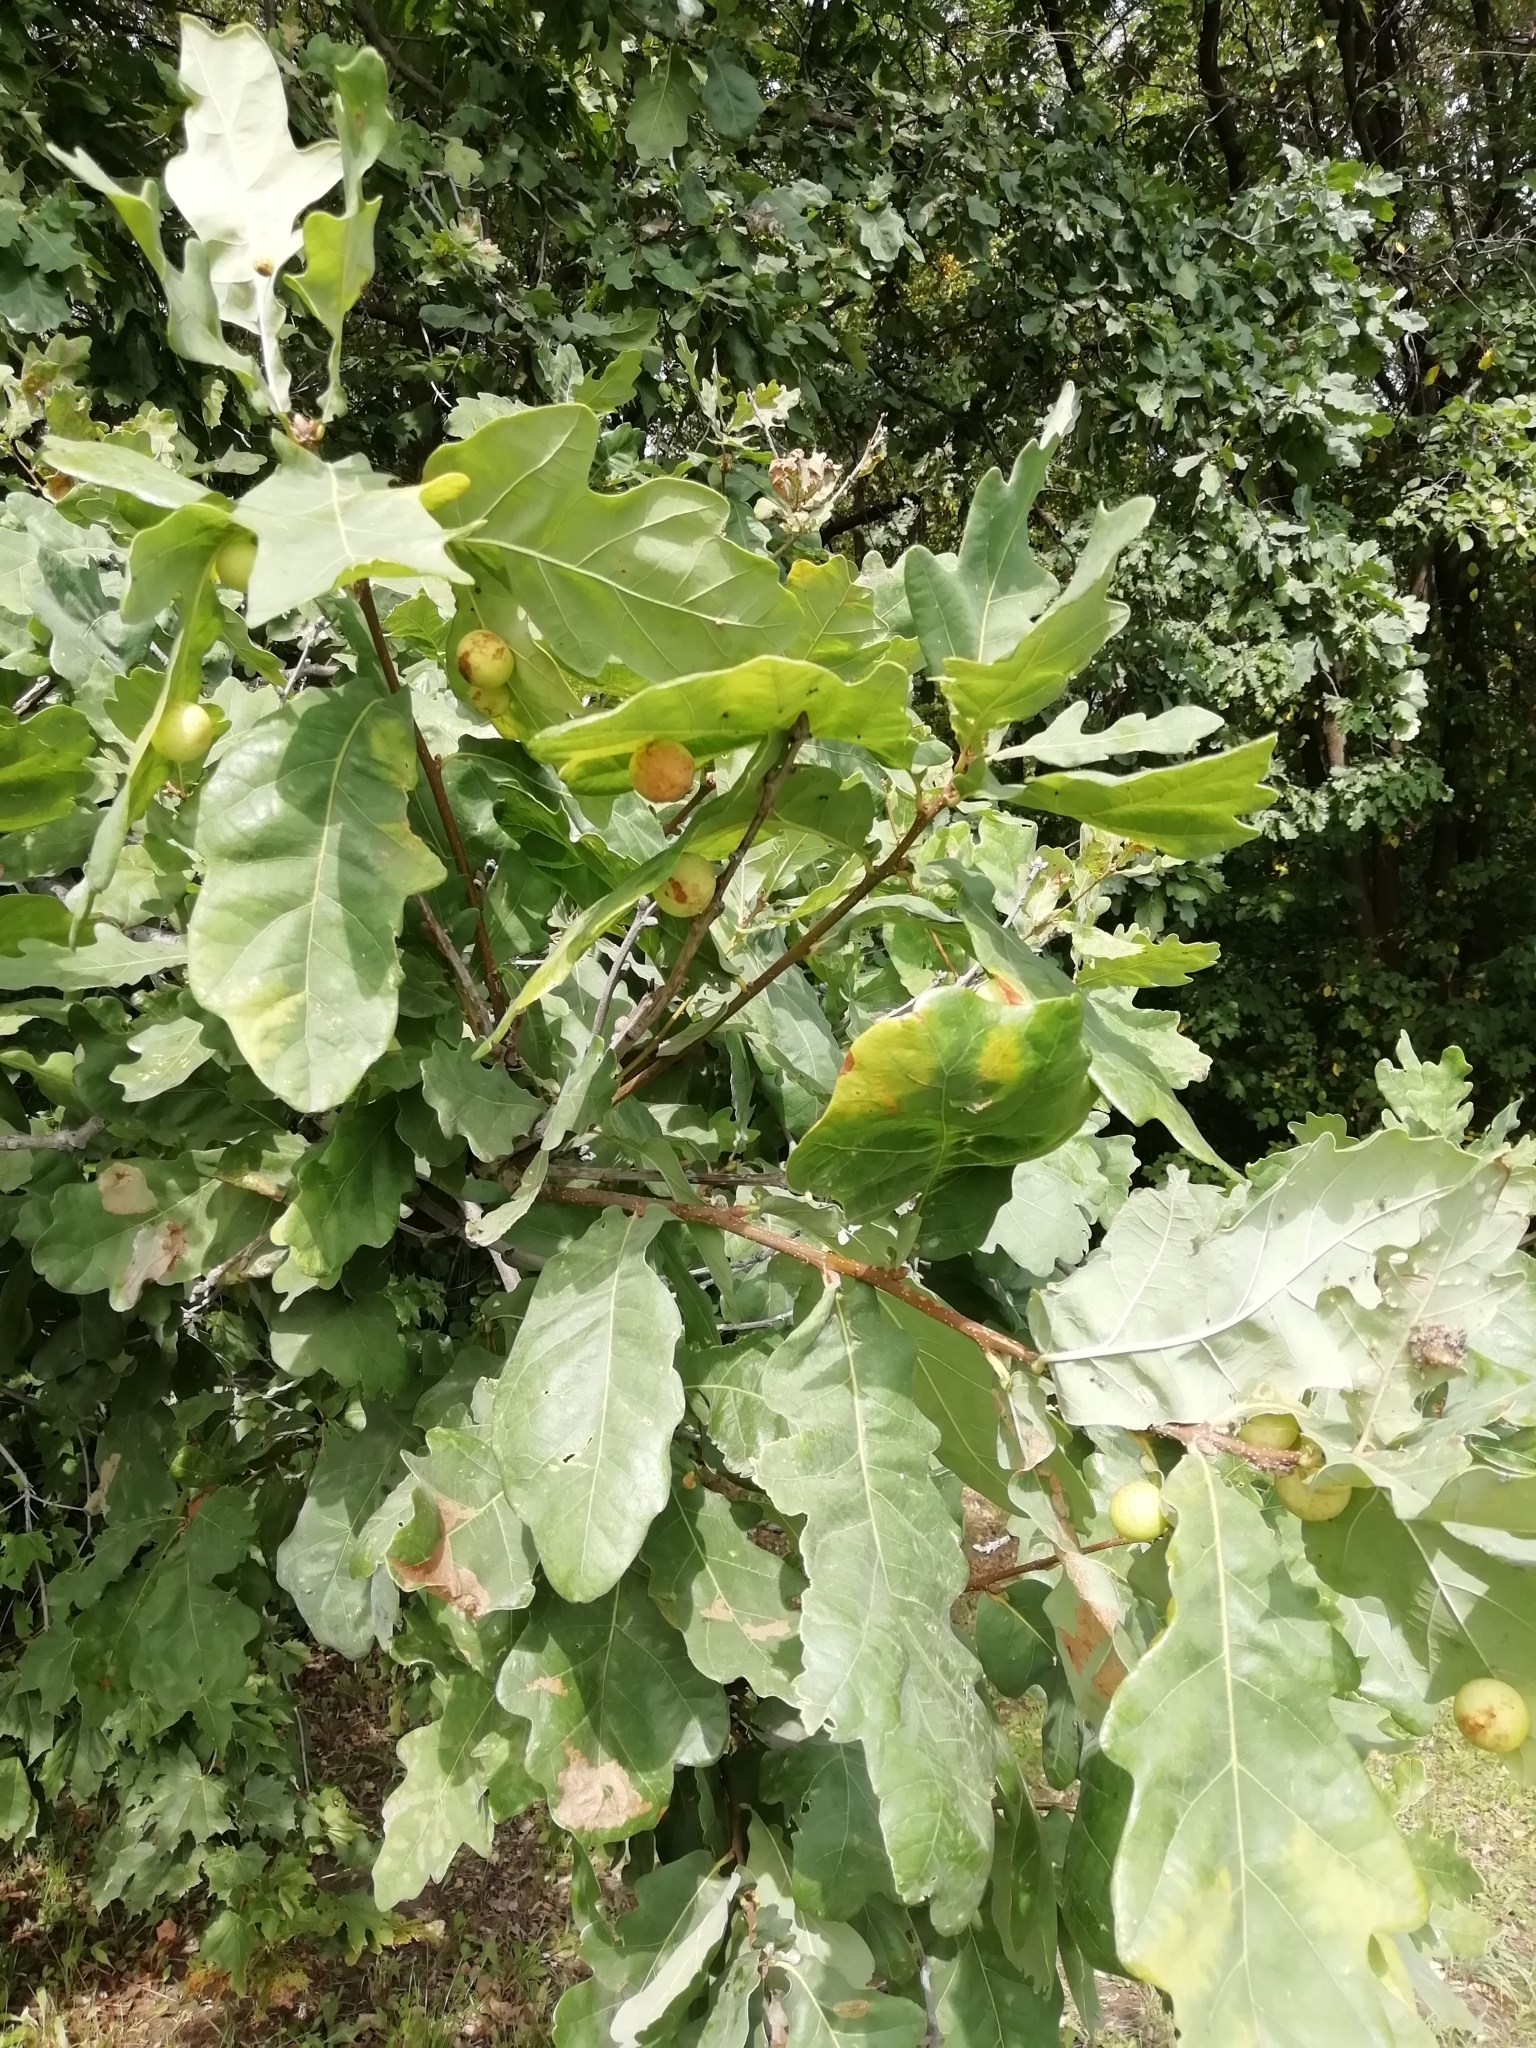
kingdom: Animalia
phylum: Arthropoda
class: Insecta
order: Hymenoptera
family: Cynipidae
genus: Cynips
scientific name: Cynips quercusfolii
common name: Cherry gall
